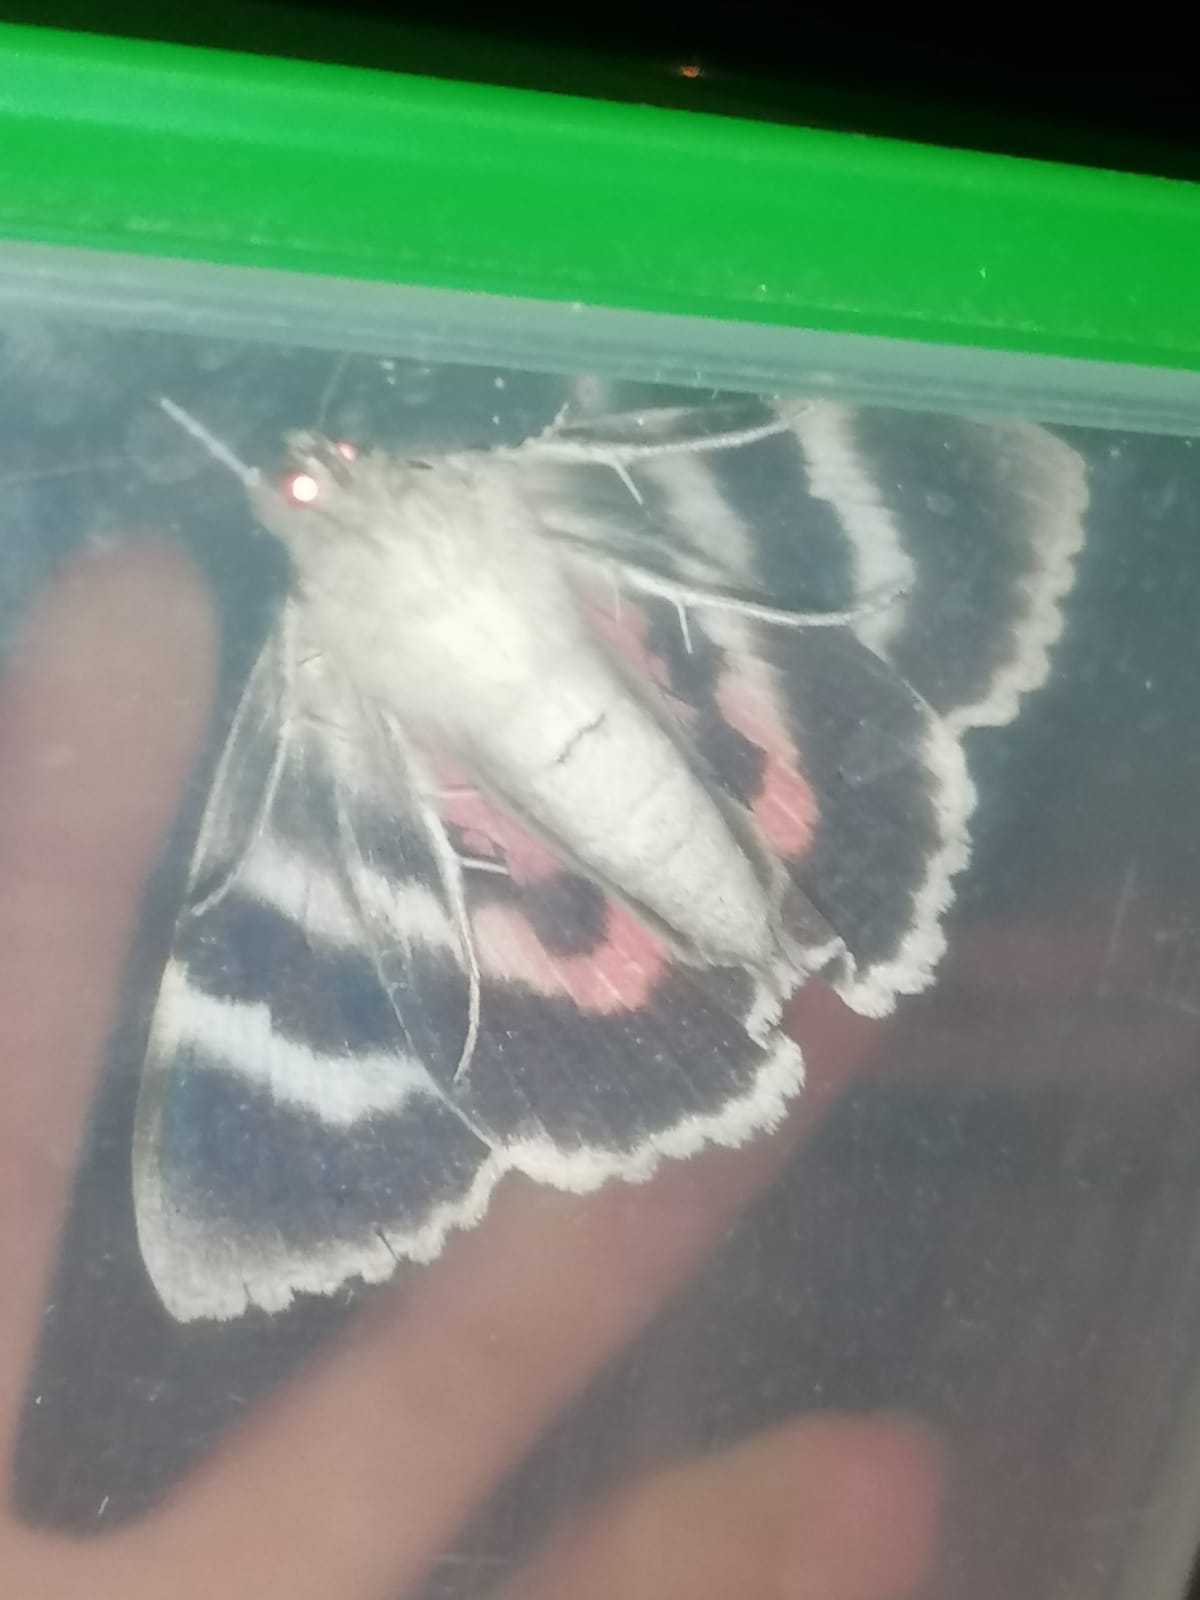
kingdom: Animalia
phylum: Arthropoda
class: Insecta
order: Lepidoptera
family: Erebidae
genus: Catocala
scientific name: Catocala nupta
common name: Red underwing
